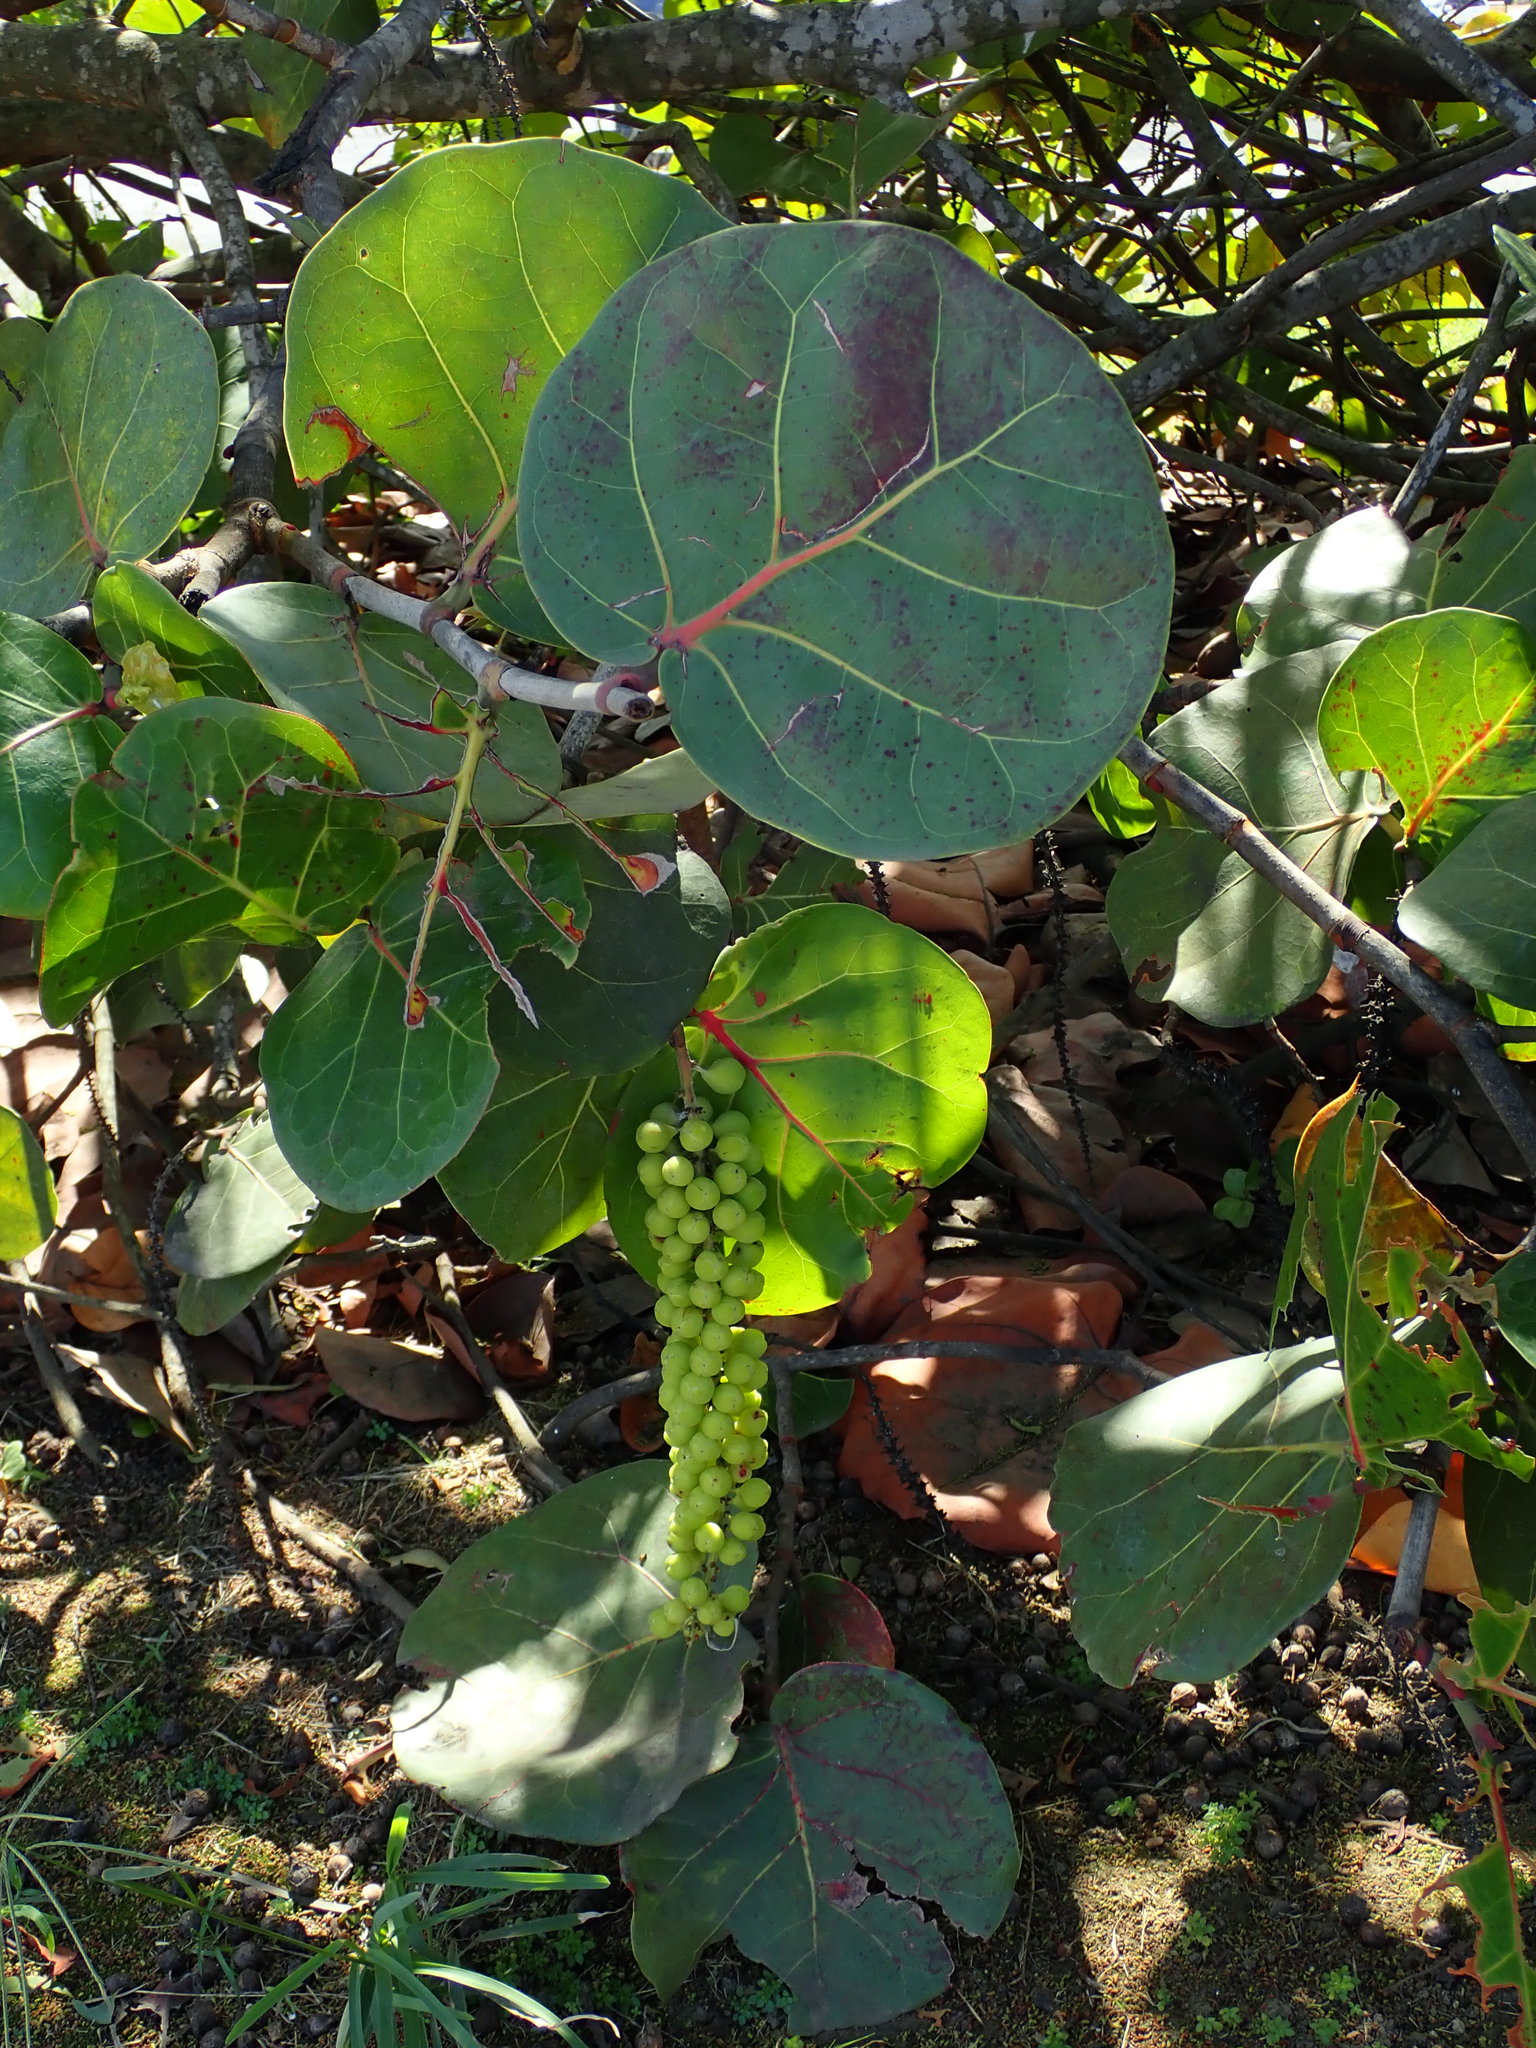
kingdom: Plantae
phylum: Tracheophyta
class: Magnoliopsida
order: Caryophyllales
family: Polygonaceae
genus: Coccoloba
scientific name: Coccoloba uvifera
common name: Seagrape
